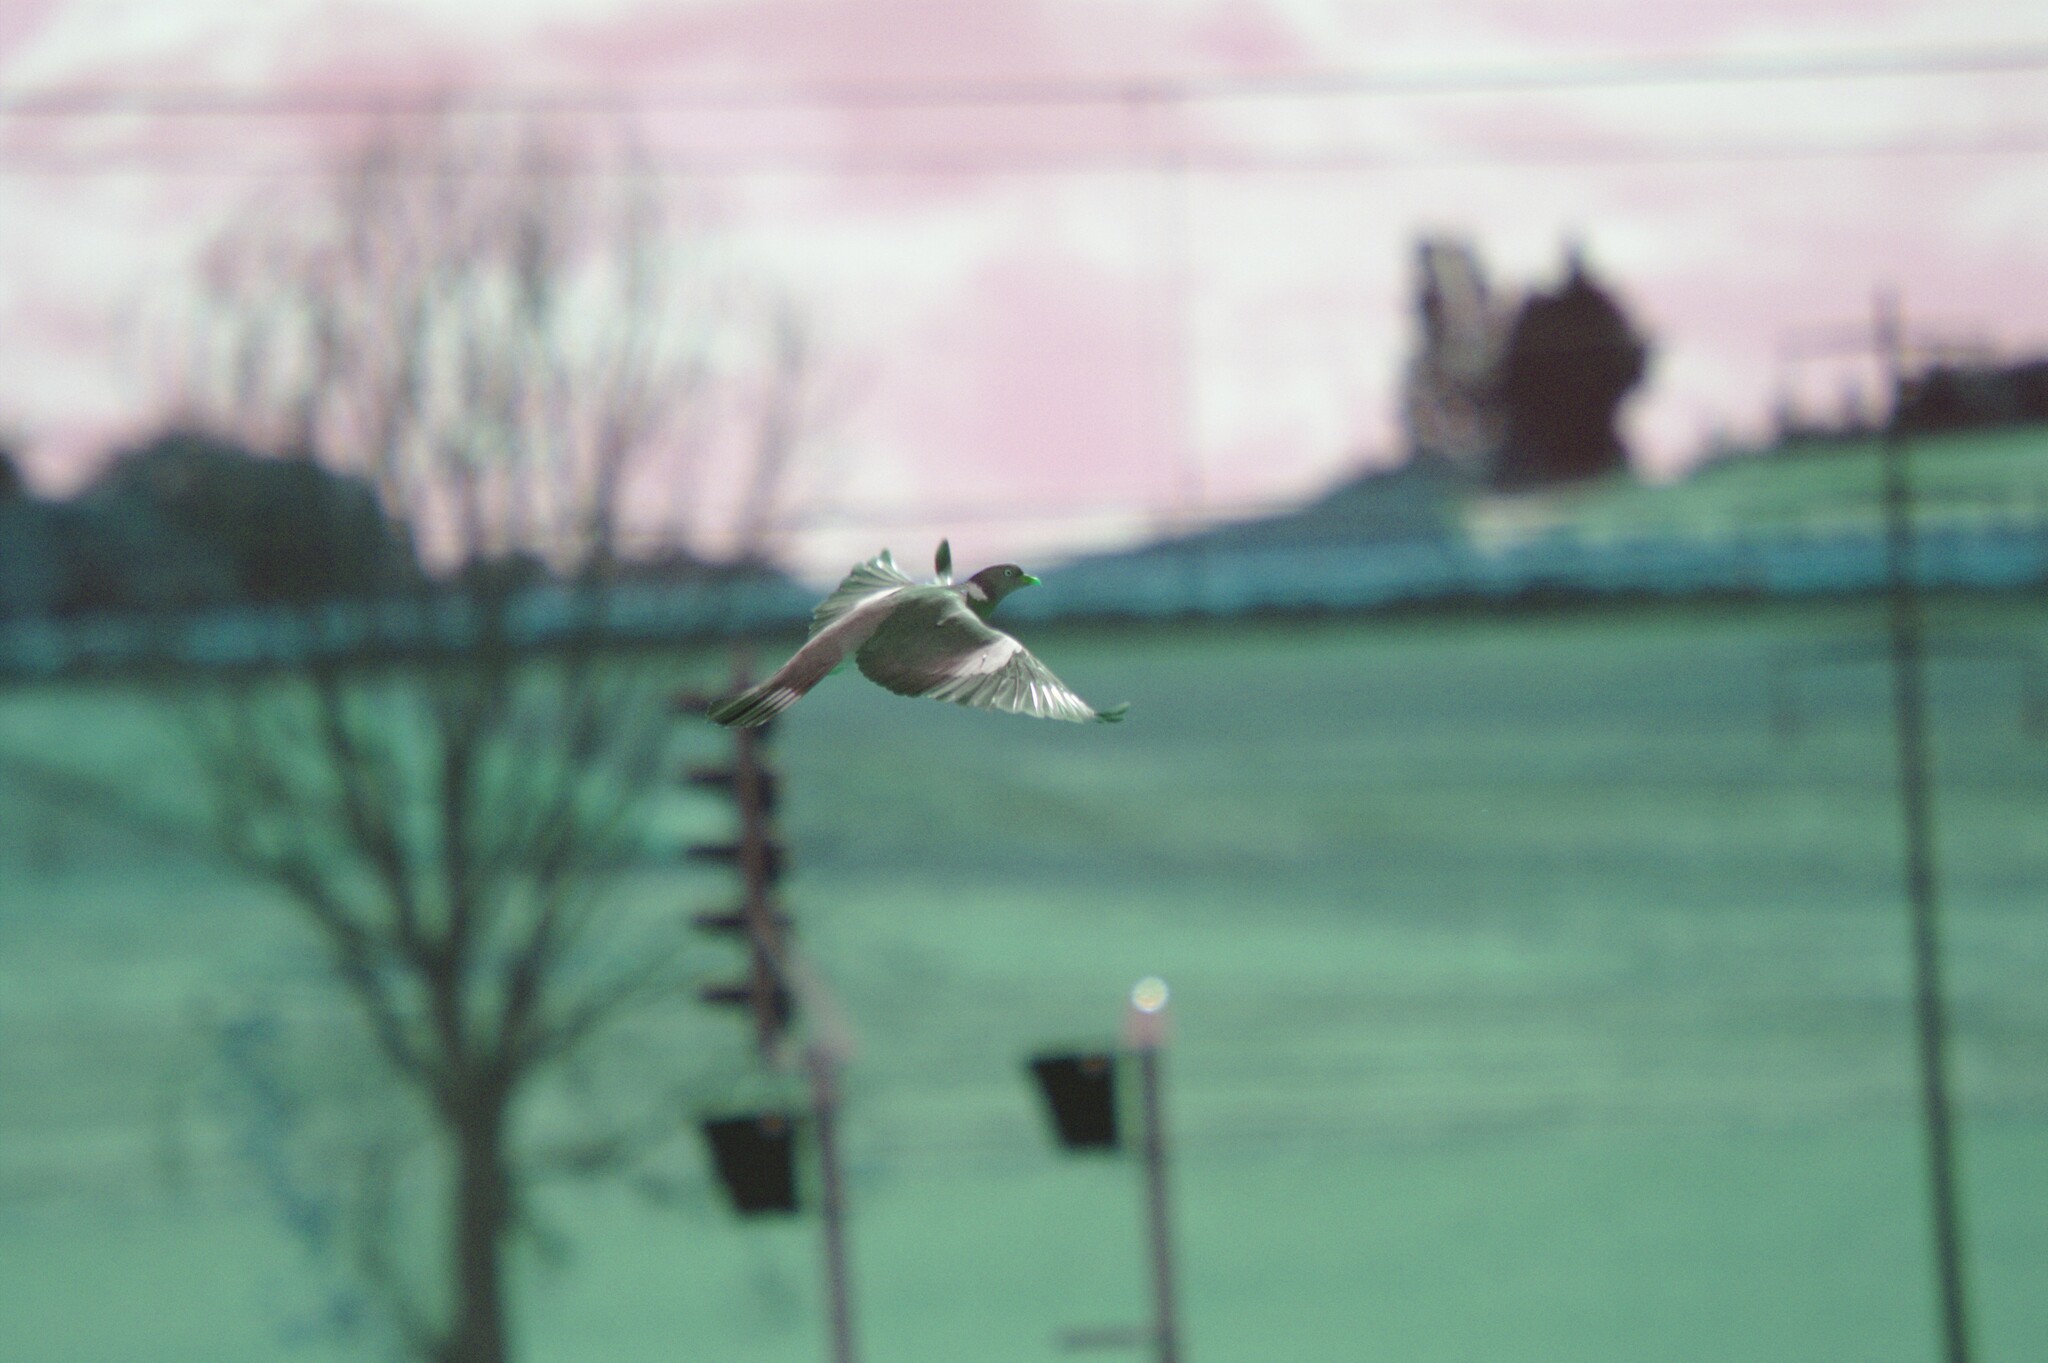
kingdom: Animalia
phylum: Chordata
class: Aves
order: Columbiformes
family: Columbidae
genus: Columba
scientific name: Columba palumbus
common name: Common wood pigeon
